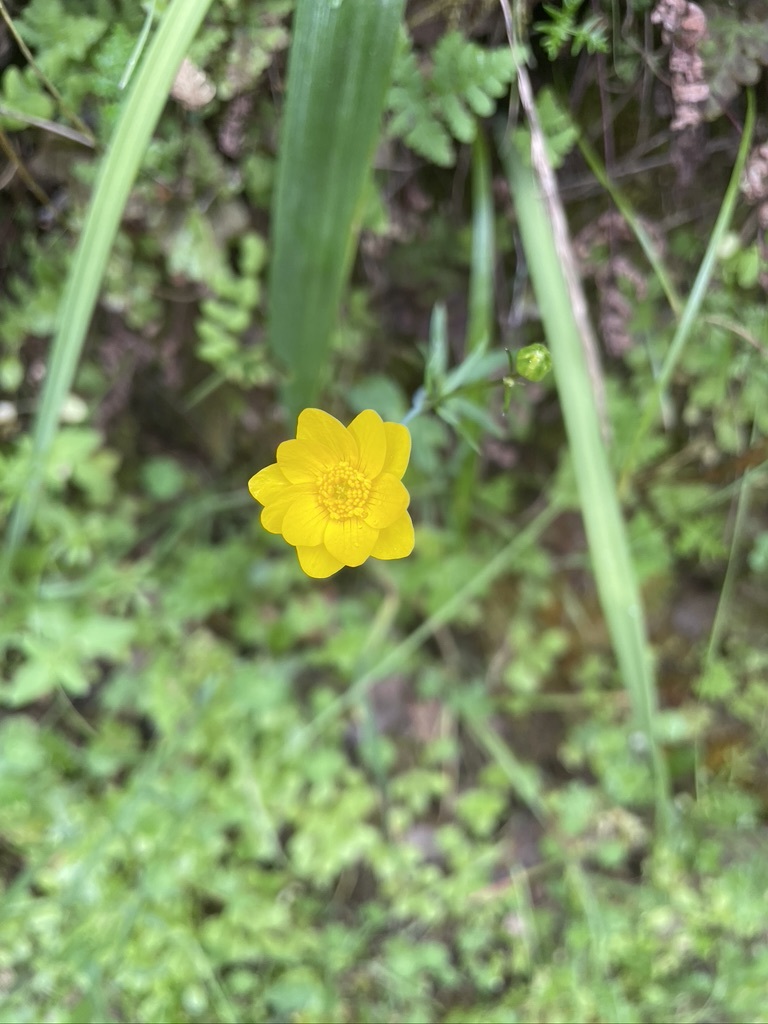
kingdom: Plantae
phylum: Tracheophyta
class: Magnoliopsida
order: Ranunculales
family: Ranunculaceae
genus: Ranunculus
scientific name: Ranunculus californicus
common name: California buttercup
